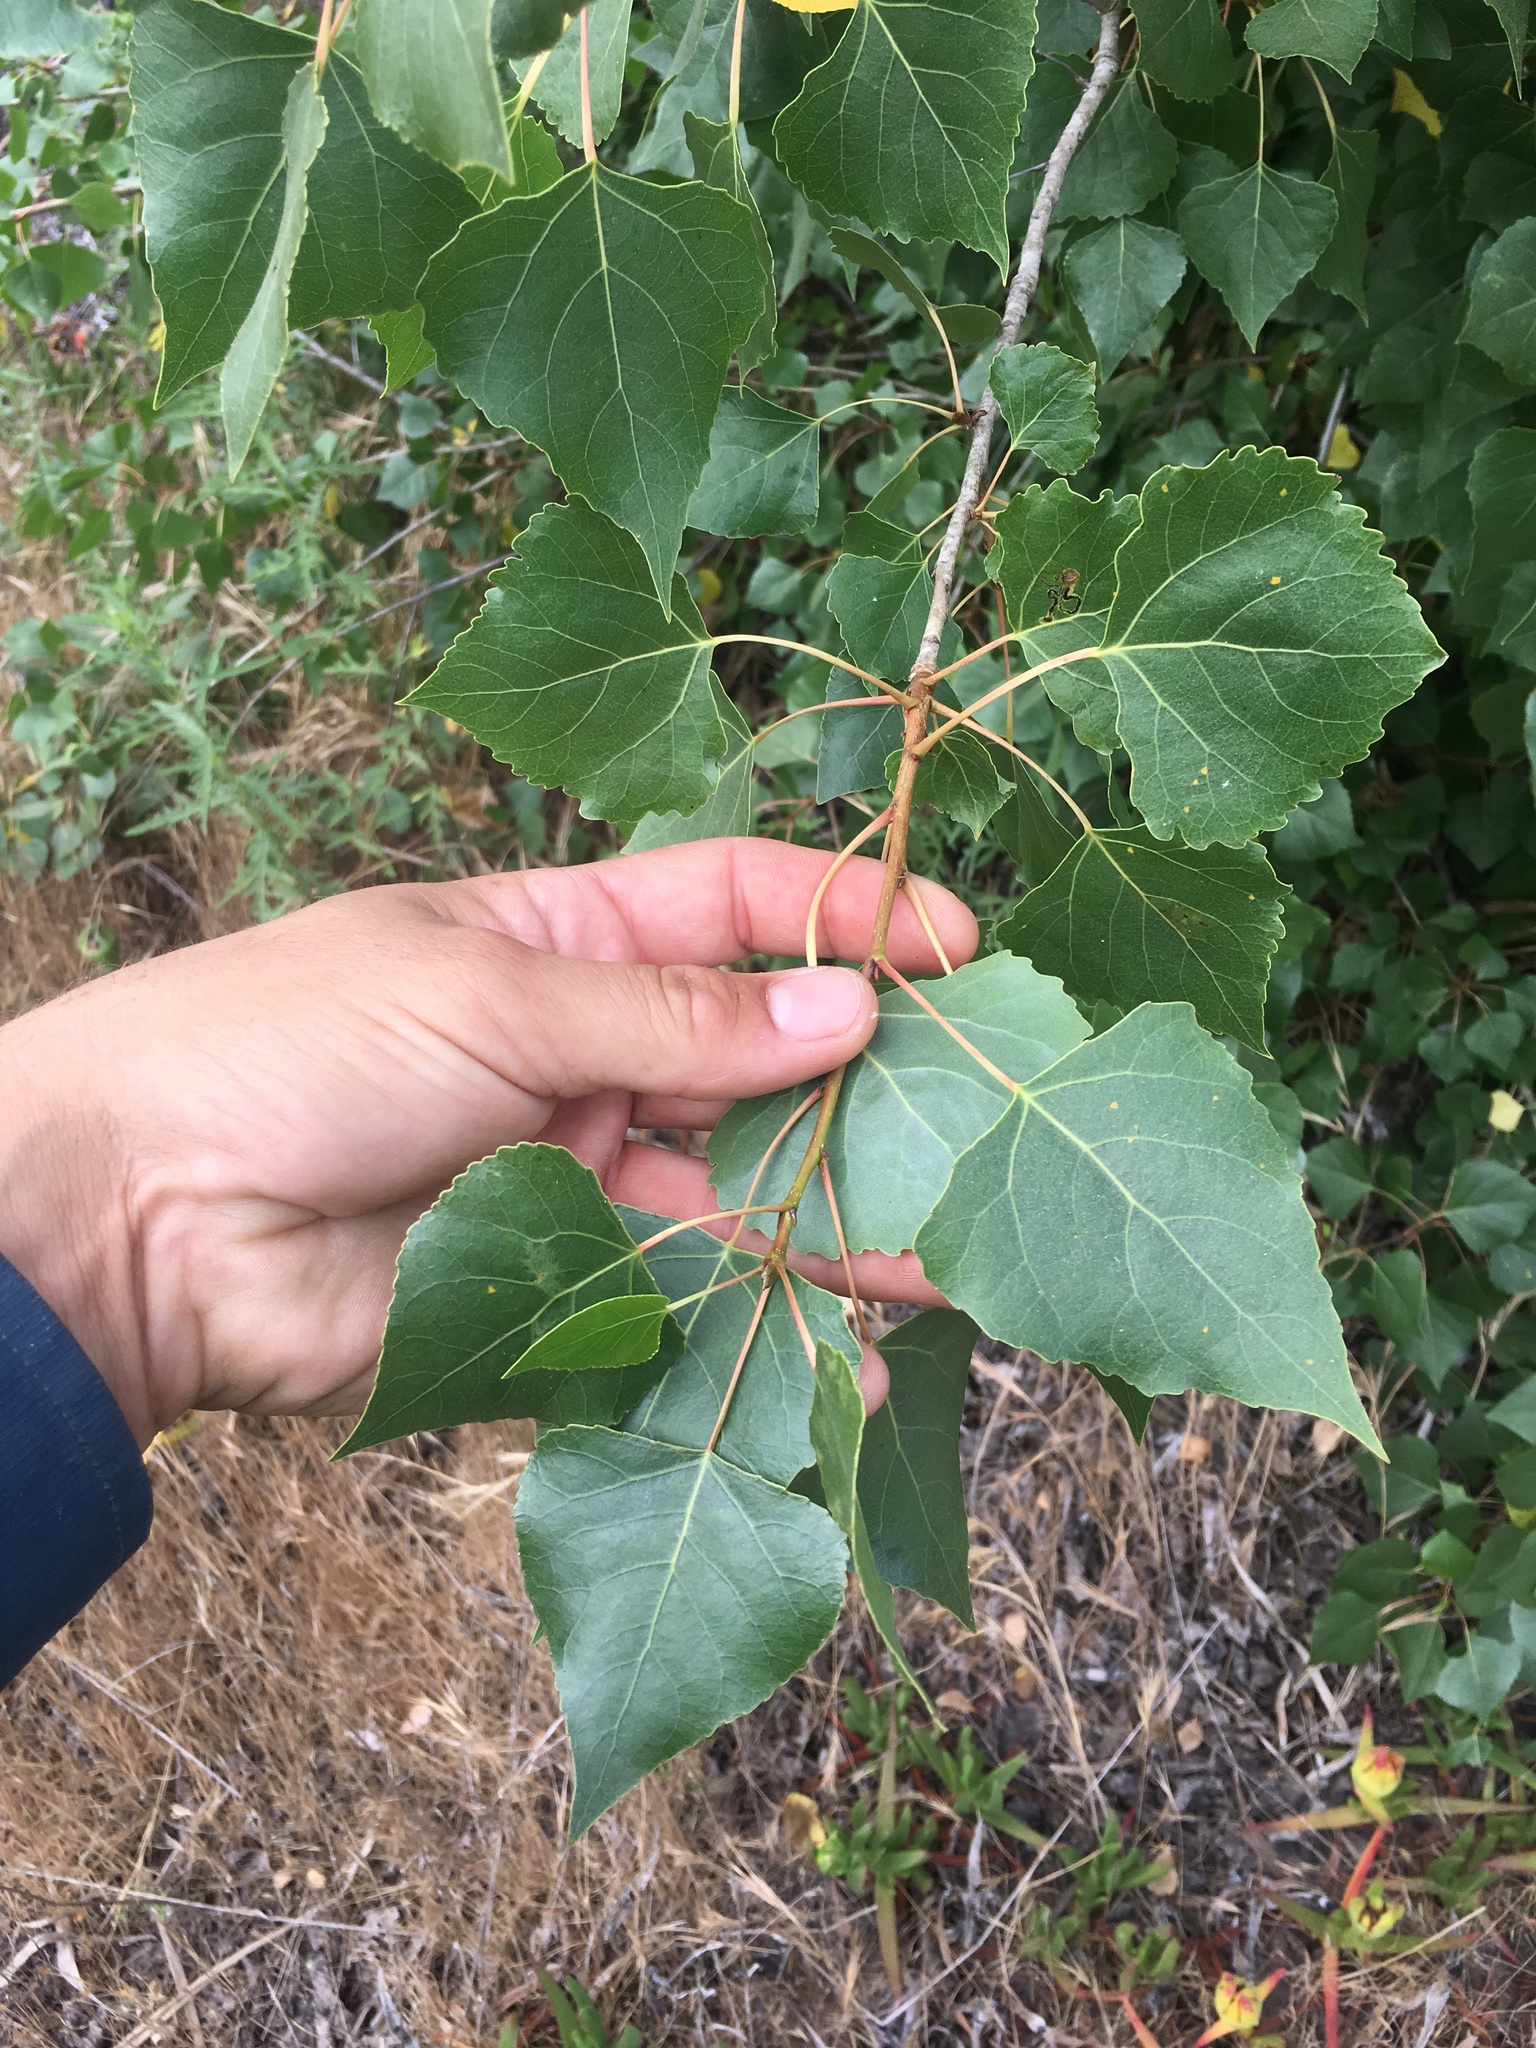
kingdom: Plantae
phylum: Tracheophyta
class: Magnoliopsida
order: Malpighiales
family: Salicaceae
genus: Populus
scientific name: Populus fremontii
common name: Fremont's cottonwood
